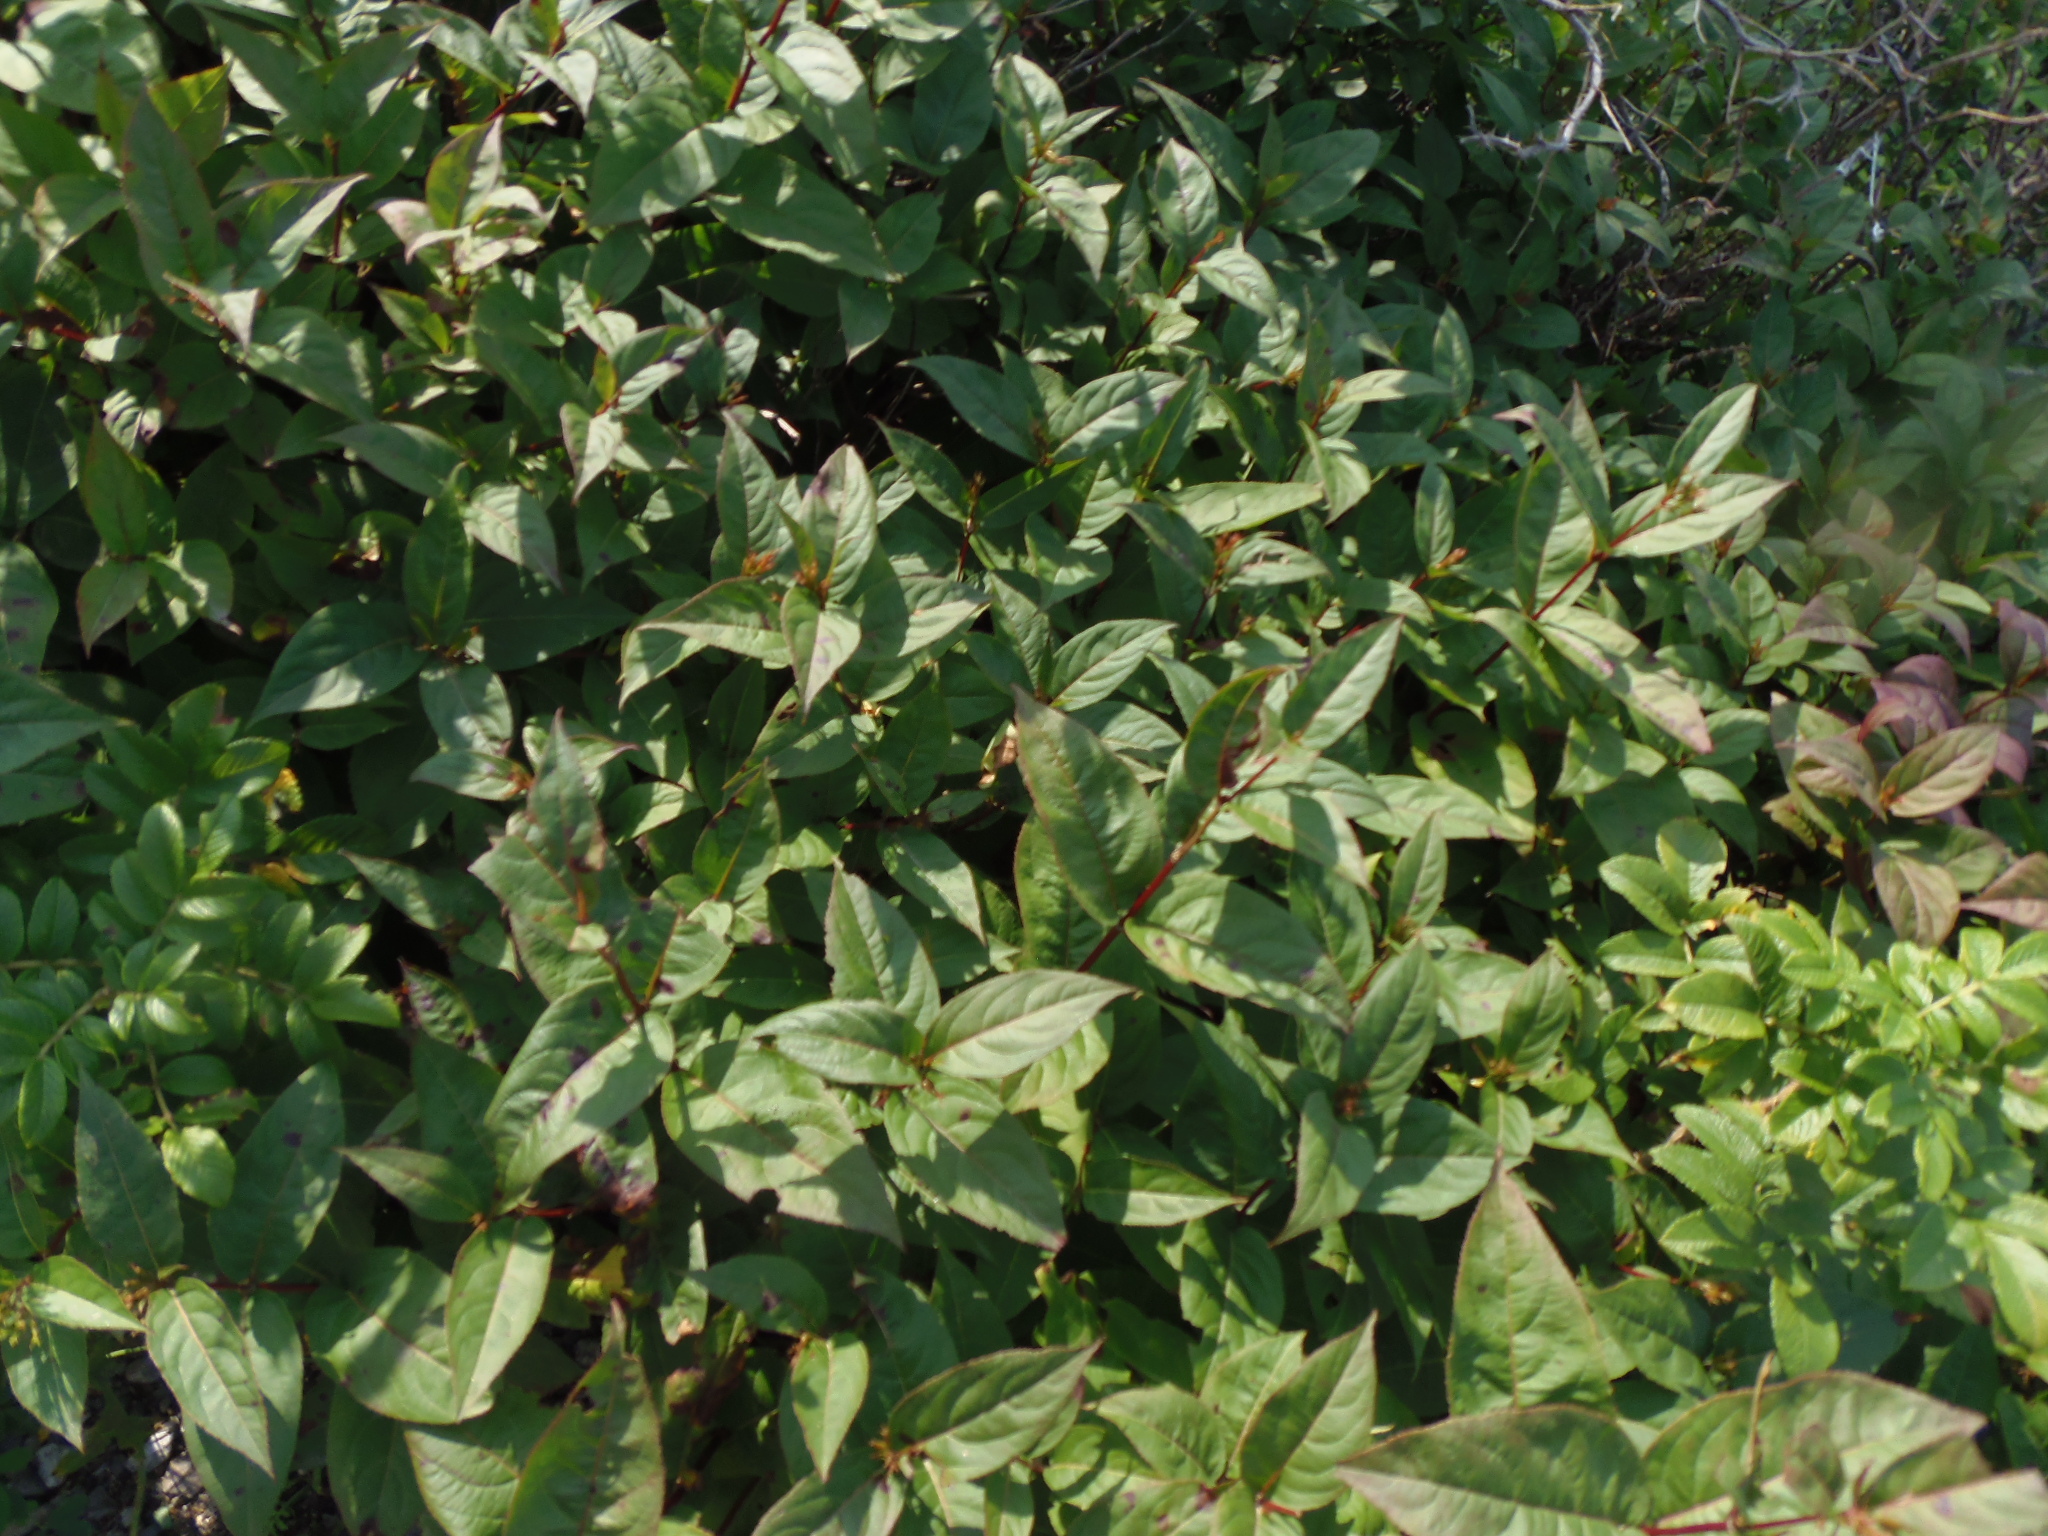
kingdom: Plantae
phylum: Tracheophyta
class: Magnoliopsida
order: Dipsacales
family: Caprifoliaceae
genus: Diervilla
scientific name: Diervilla lonicera
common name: Bush-honeysuckle
